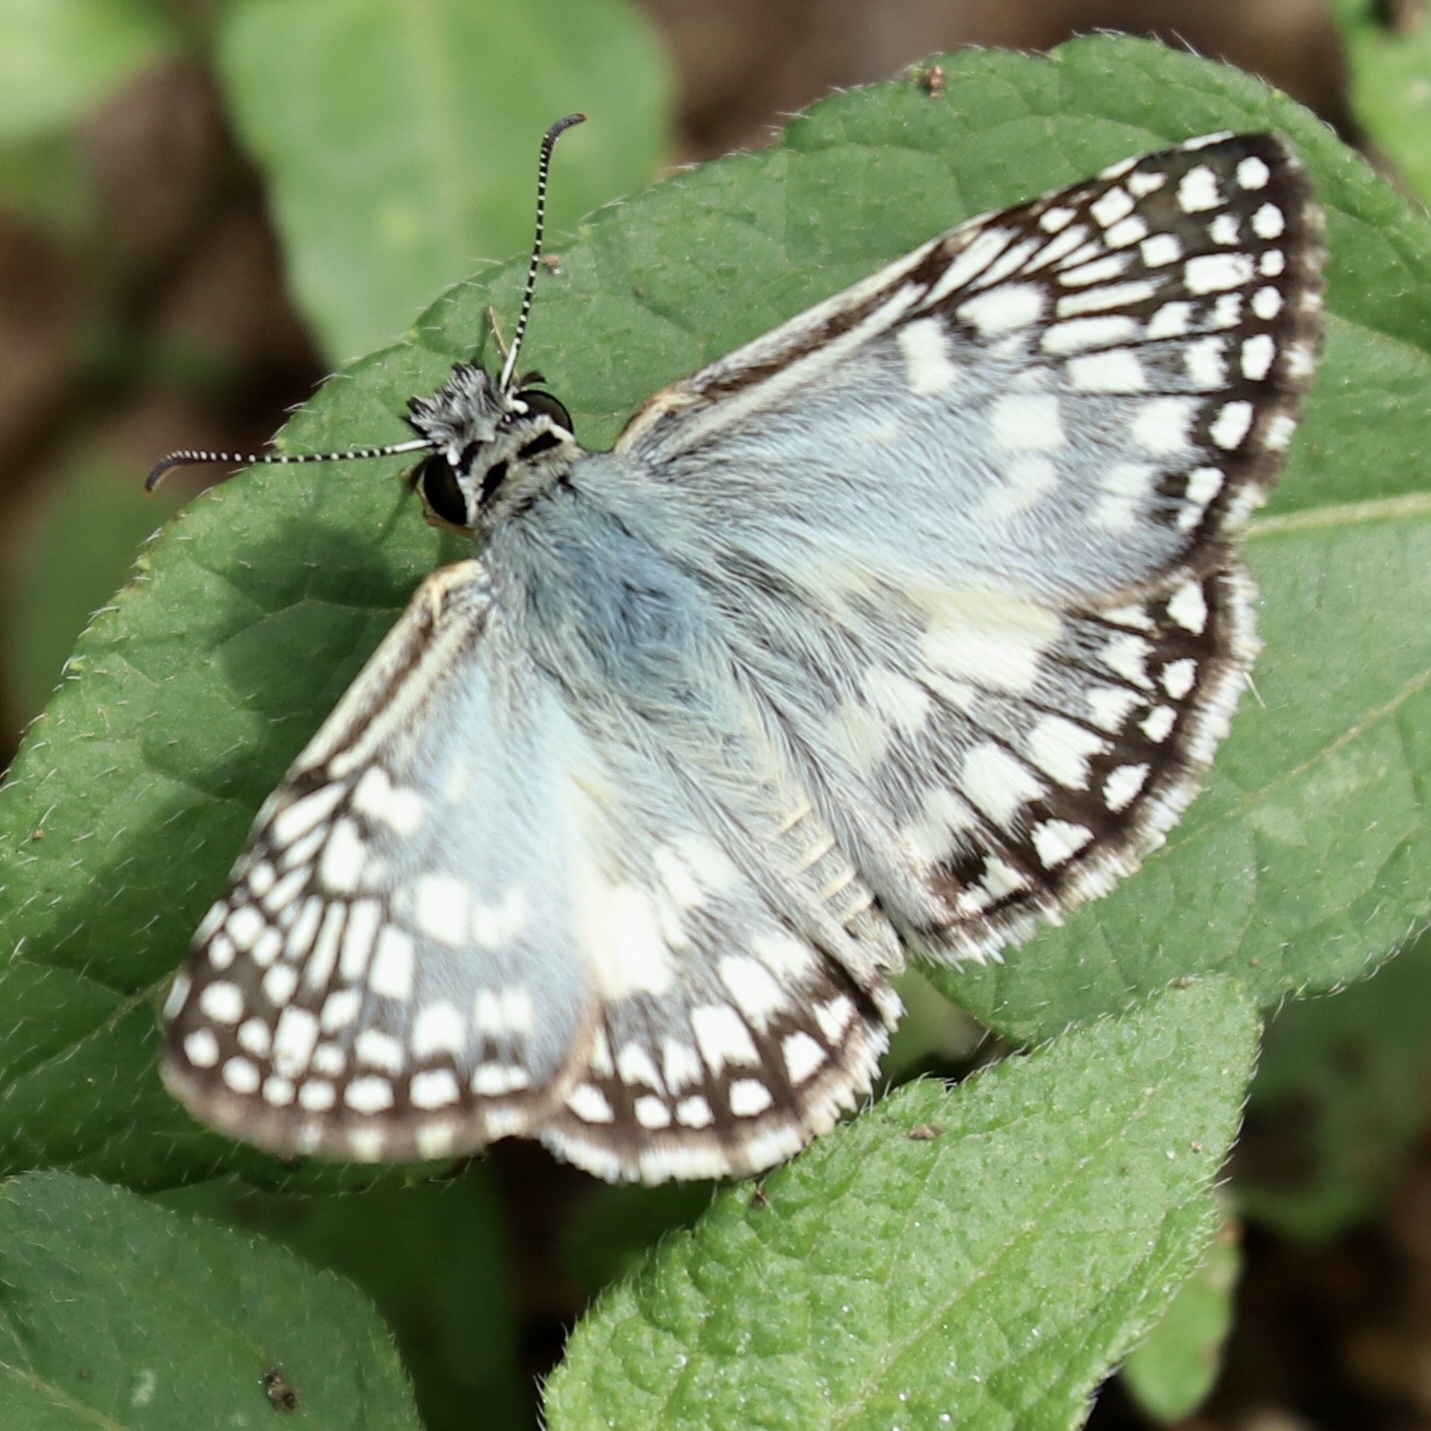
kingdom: Animalia
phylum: Arthropoda
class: Insecta
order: Lepidoptera
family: Hesperiidae
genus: Pyrgus
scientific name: Pyrgus oileus
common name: Tropical checkered-skipper
